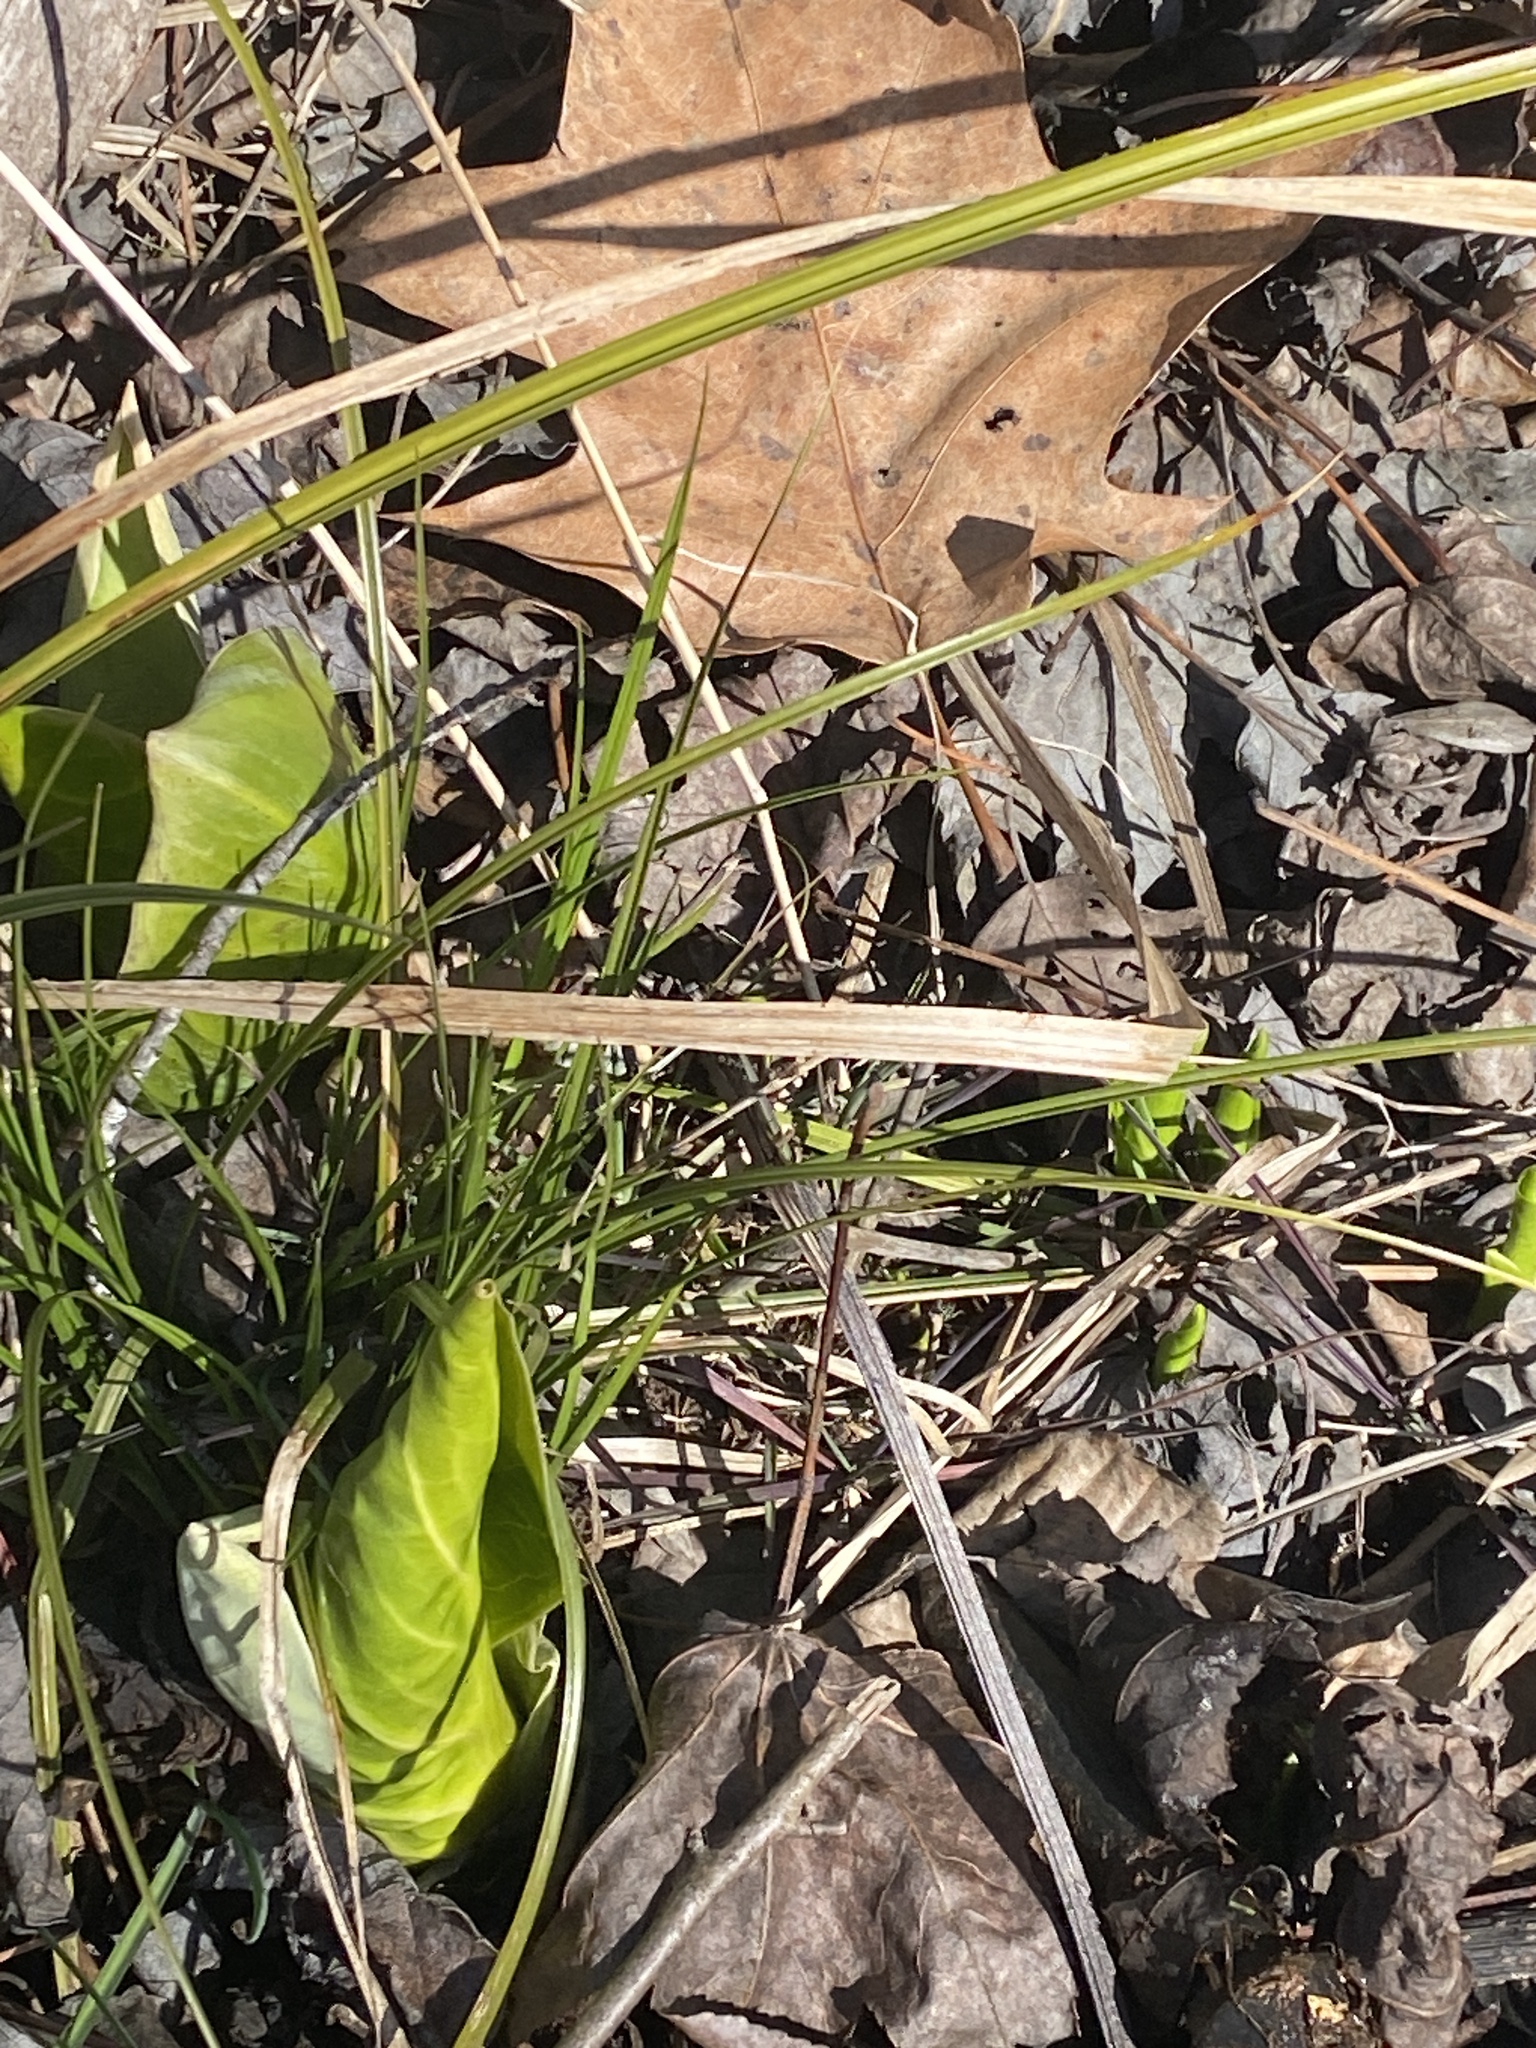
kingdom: Plantae
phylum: Tracheophyta
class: Liliopsida
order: Alismatales
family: Araceae
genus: Symplocarpus
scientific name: Symplocarpus foetidus
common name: Eastern skunk cabbage
